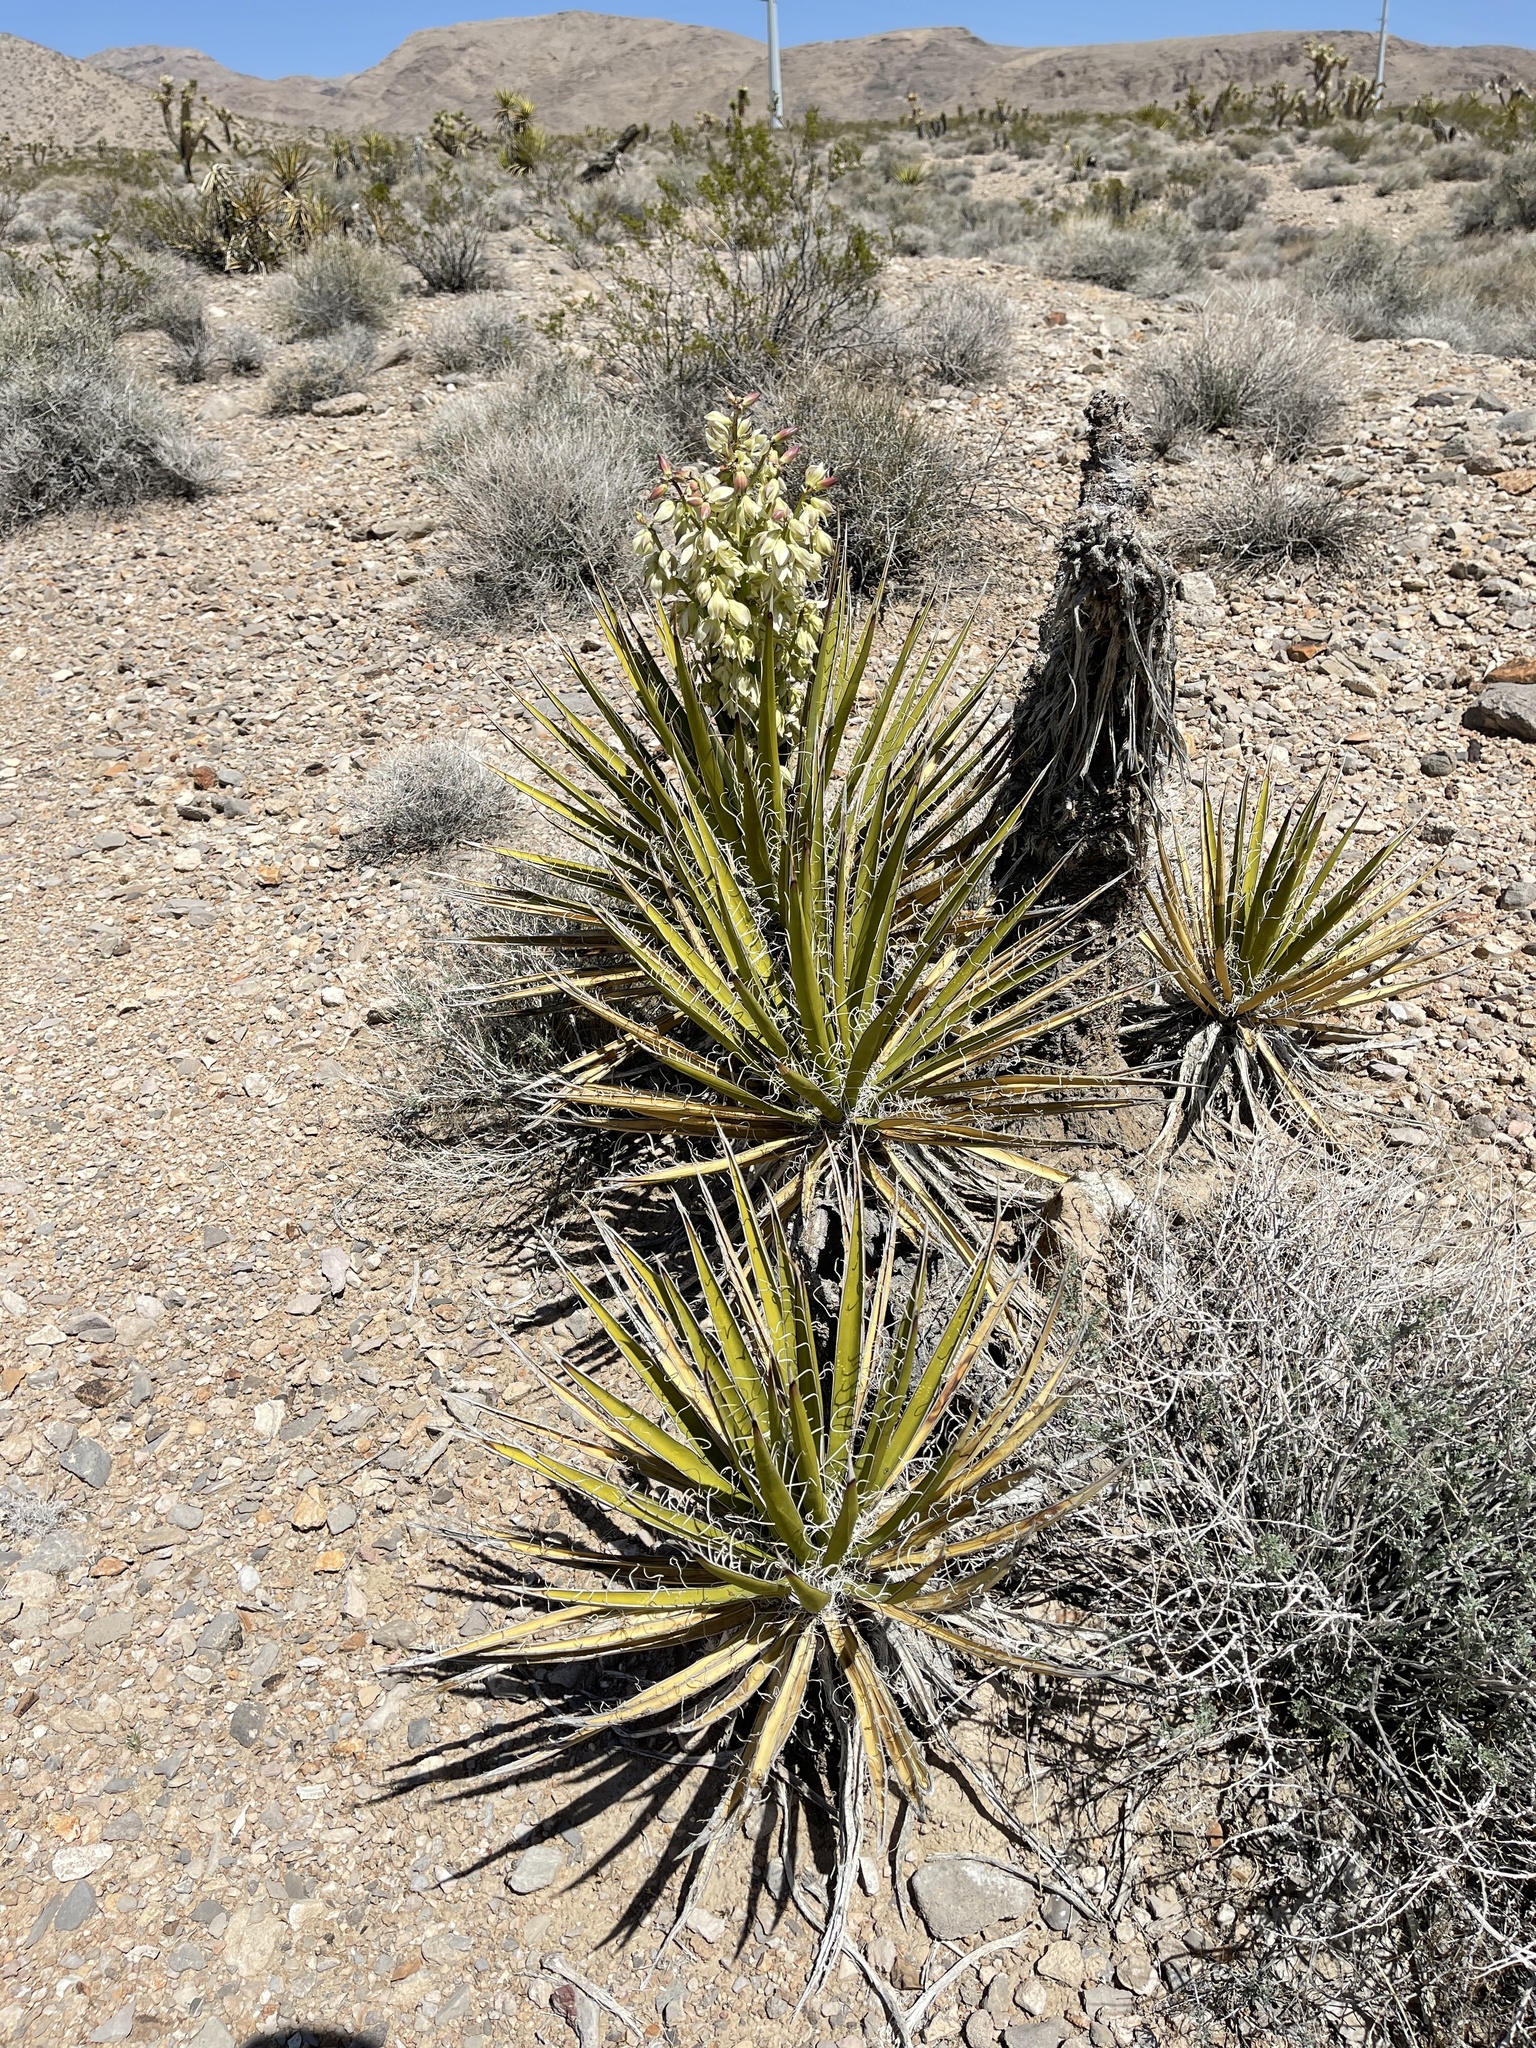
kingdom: Plantae
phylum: Tracheophyta
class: Liliopsida
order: Asparagales
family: Asparagaceae
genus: Yucca
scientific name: Yucca schidigera
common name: Mojave yucca
